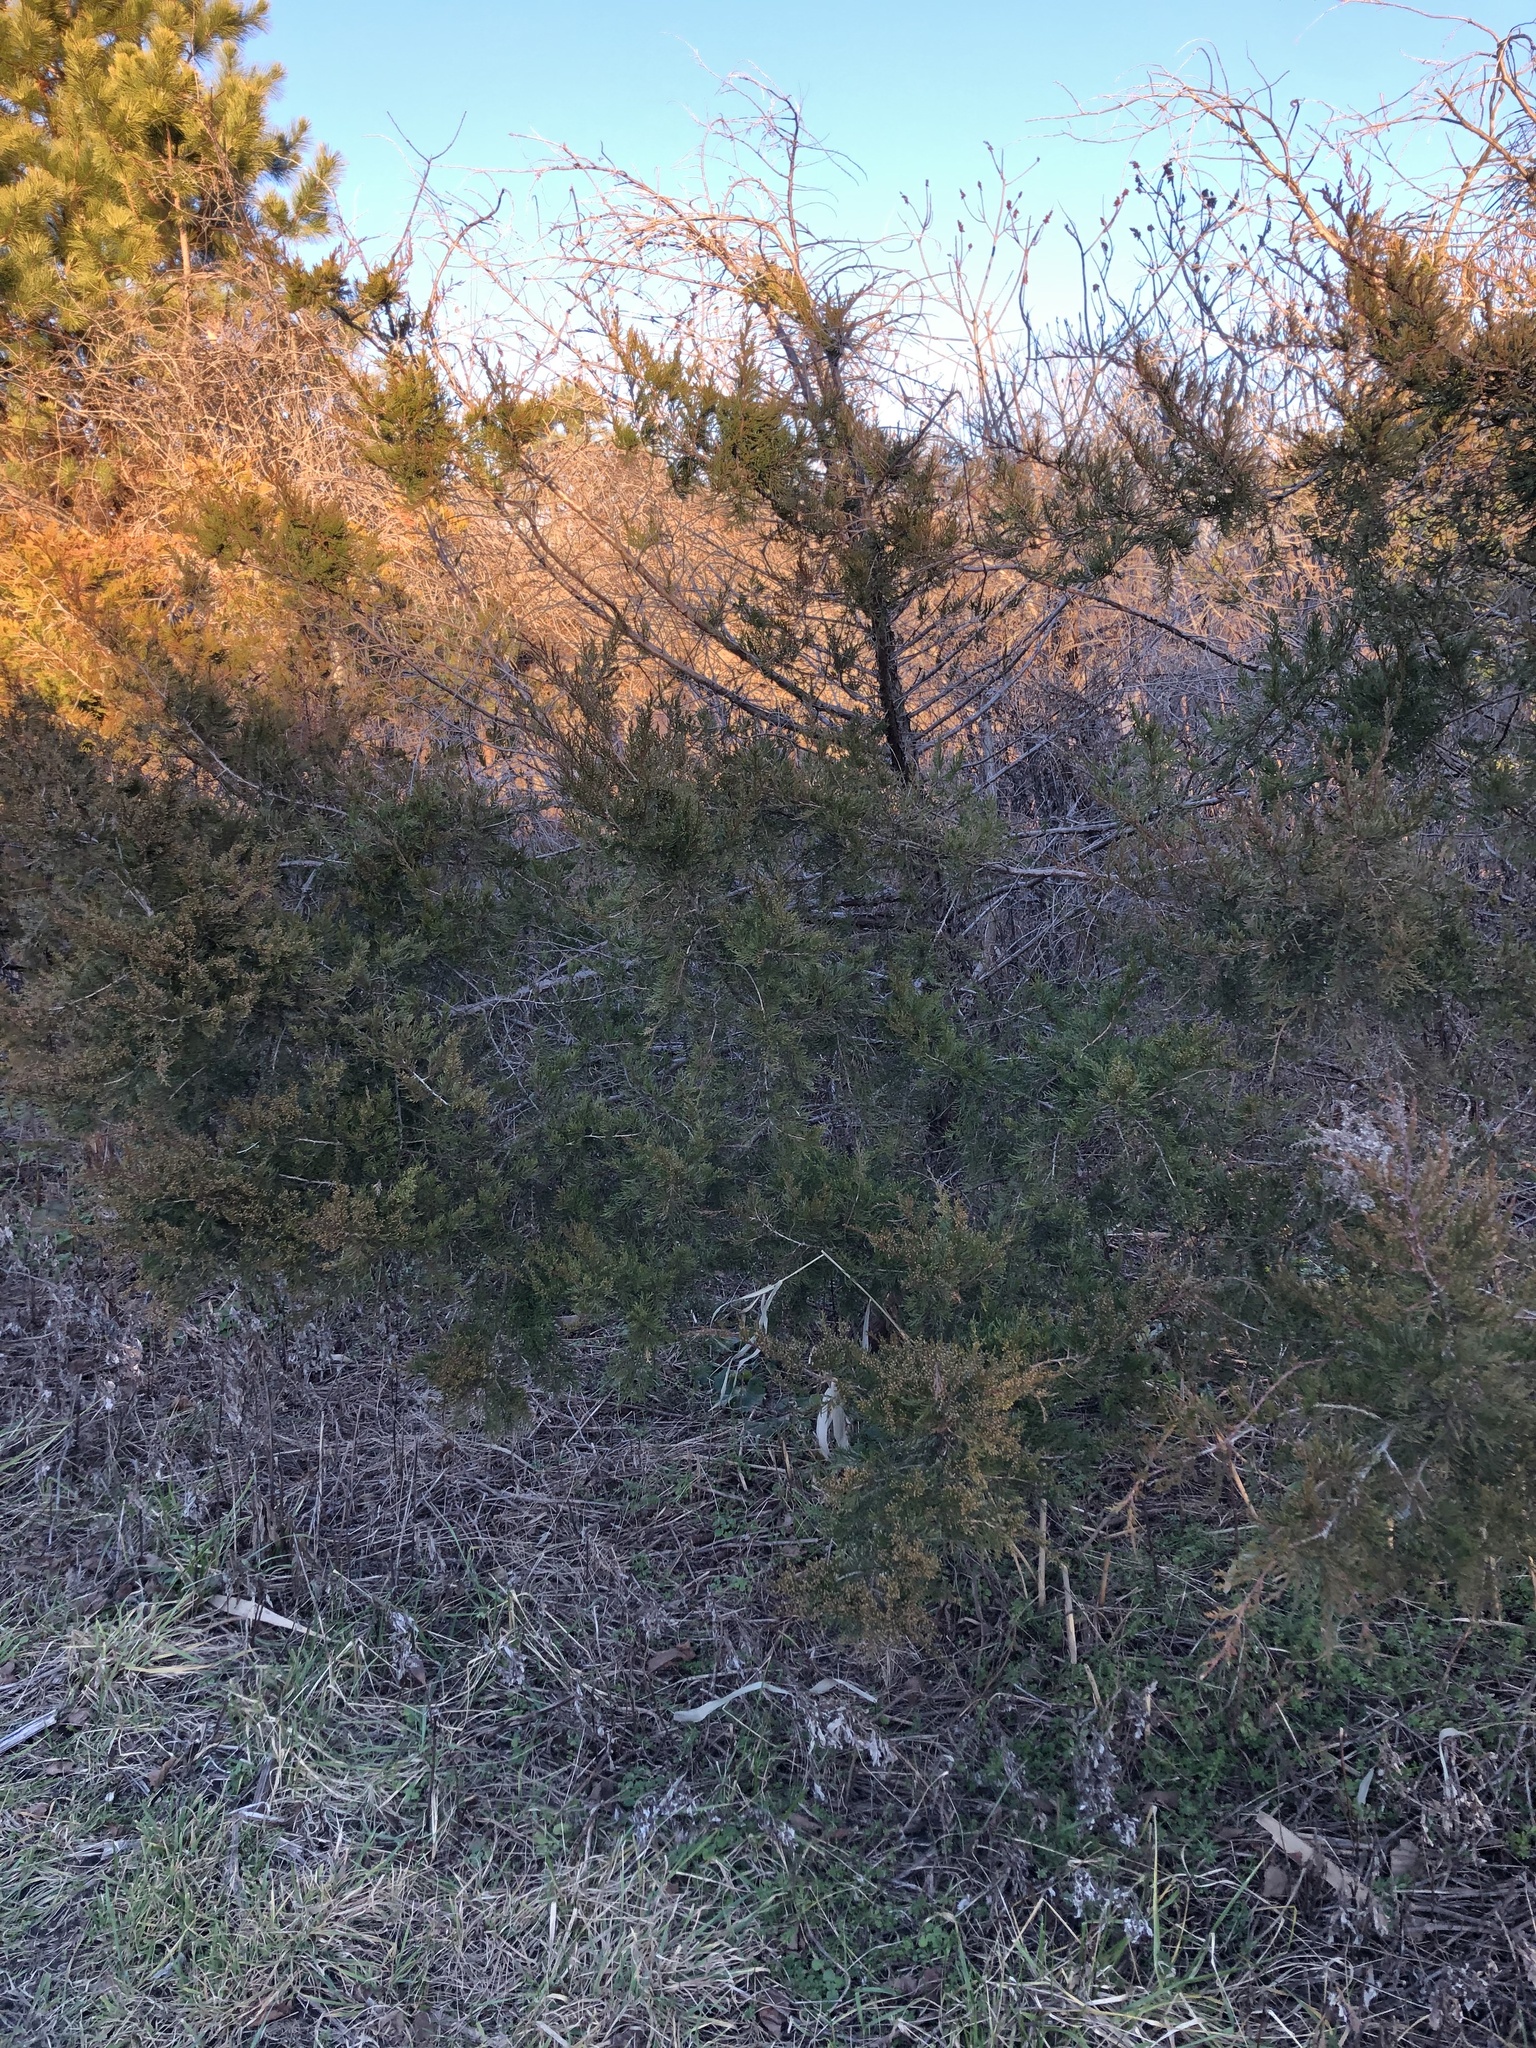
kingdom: Plantae
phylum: Tracheophyta
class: Pinopsida
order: Pinales
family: Cupressaceae
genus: Juniperus
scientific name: Juniperus virginiana
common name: Red juniper
